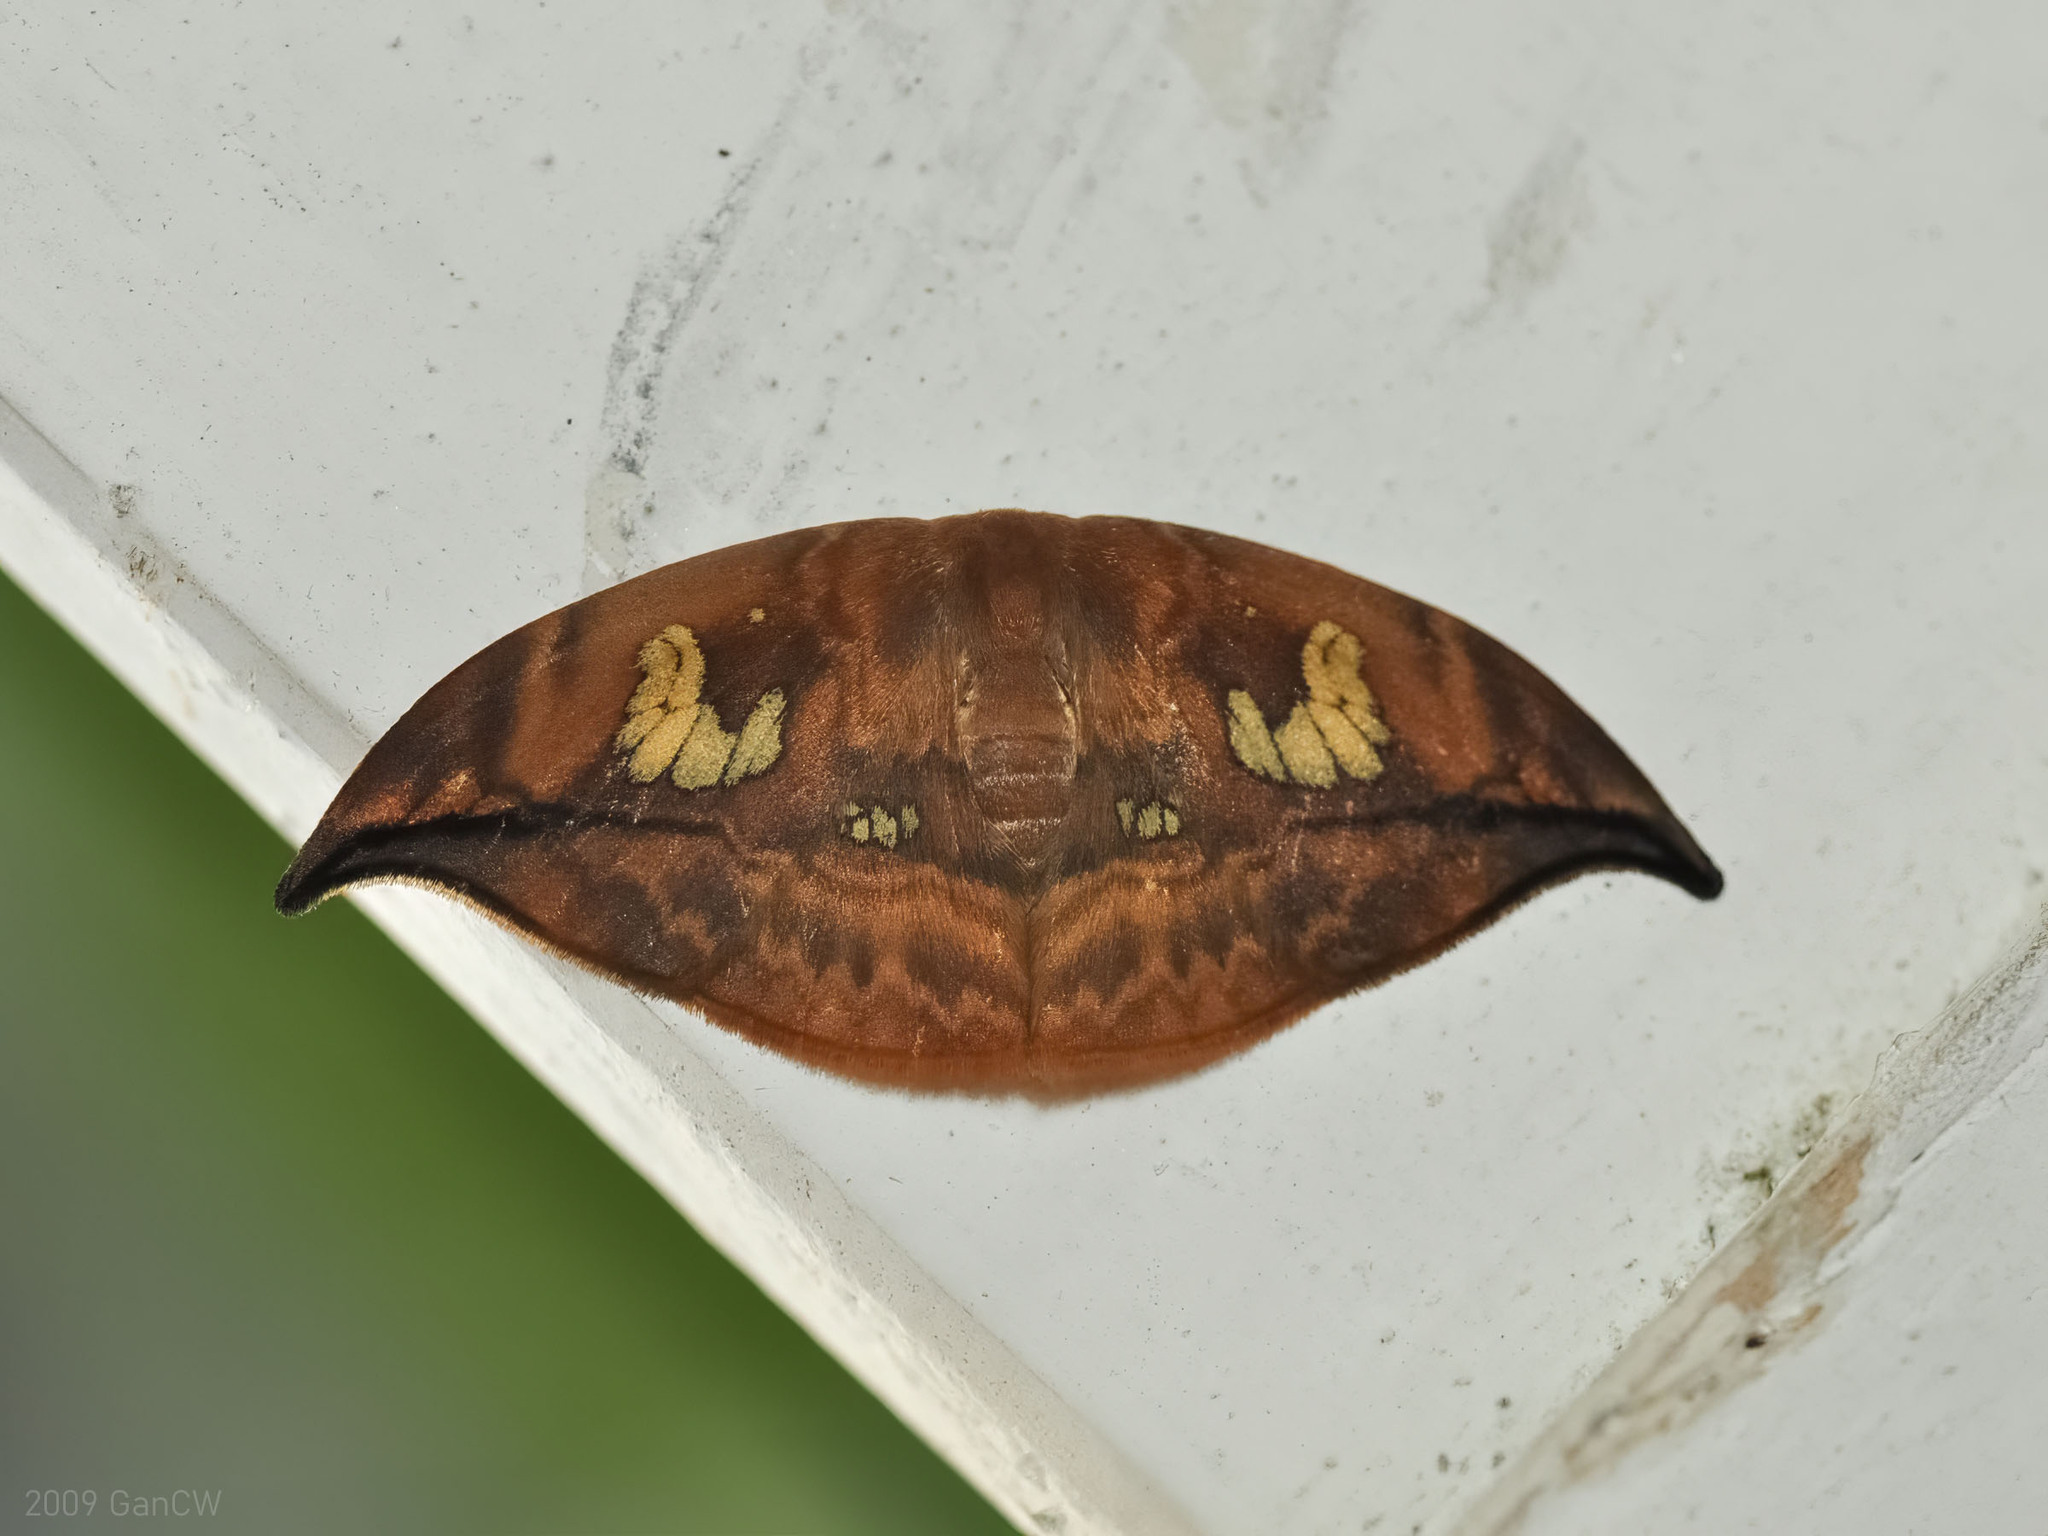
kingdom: Animalia
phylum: Arthropoda
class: Insecta
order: Lepidoptera
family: Drepanidae
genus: Agnidra
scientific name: Agnidra fuscilinea
